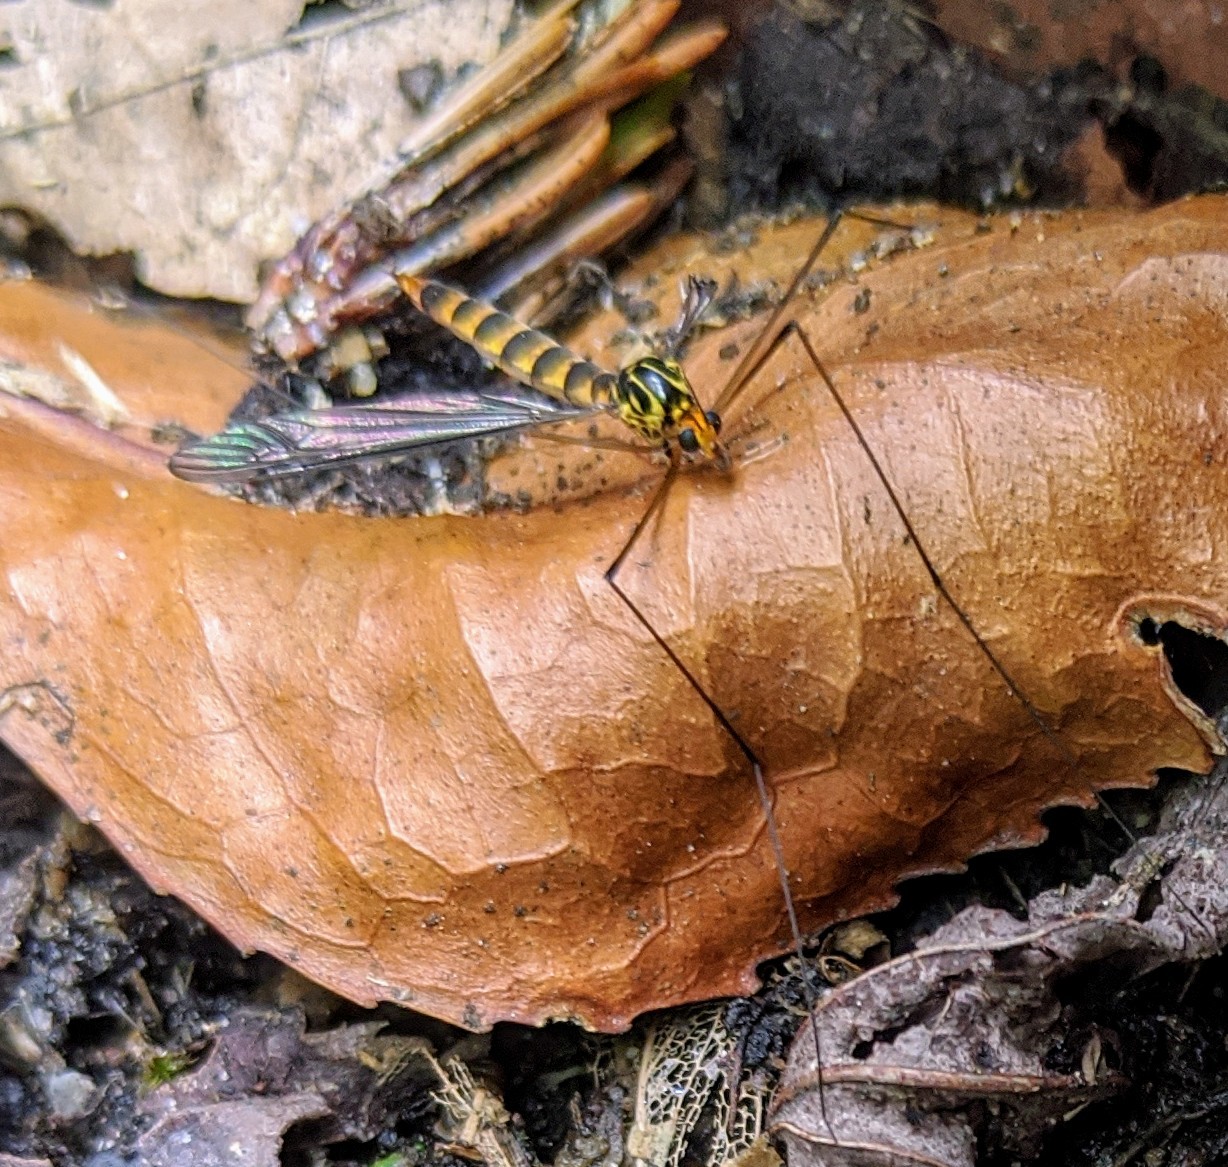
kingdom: Animalia
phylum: Arthropoda
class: Insecta
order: Diptera
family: Tipulidae
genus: Nephrotoma
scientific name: Nephrotoma flavipalpis
